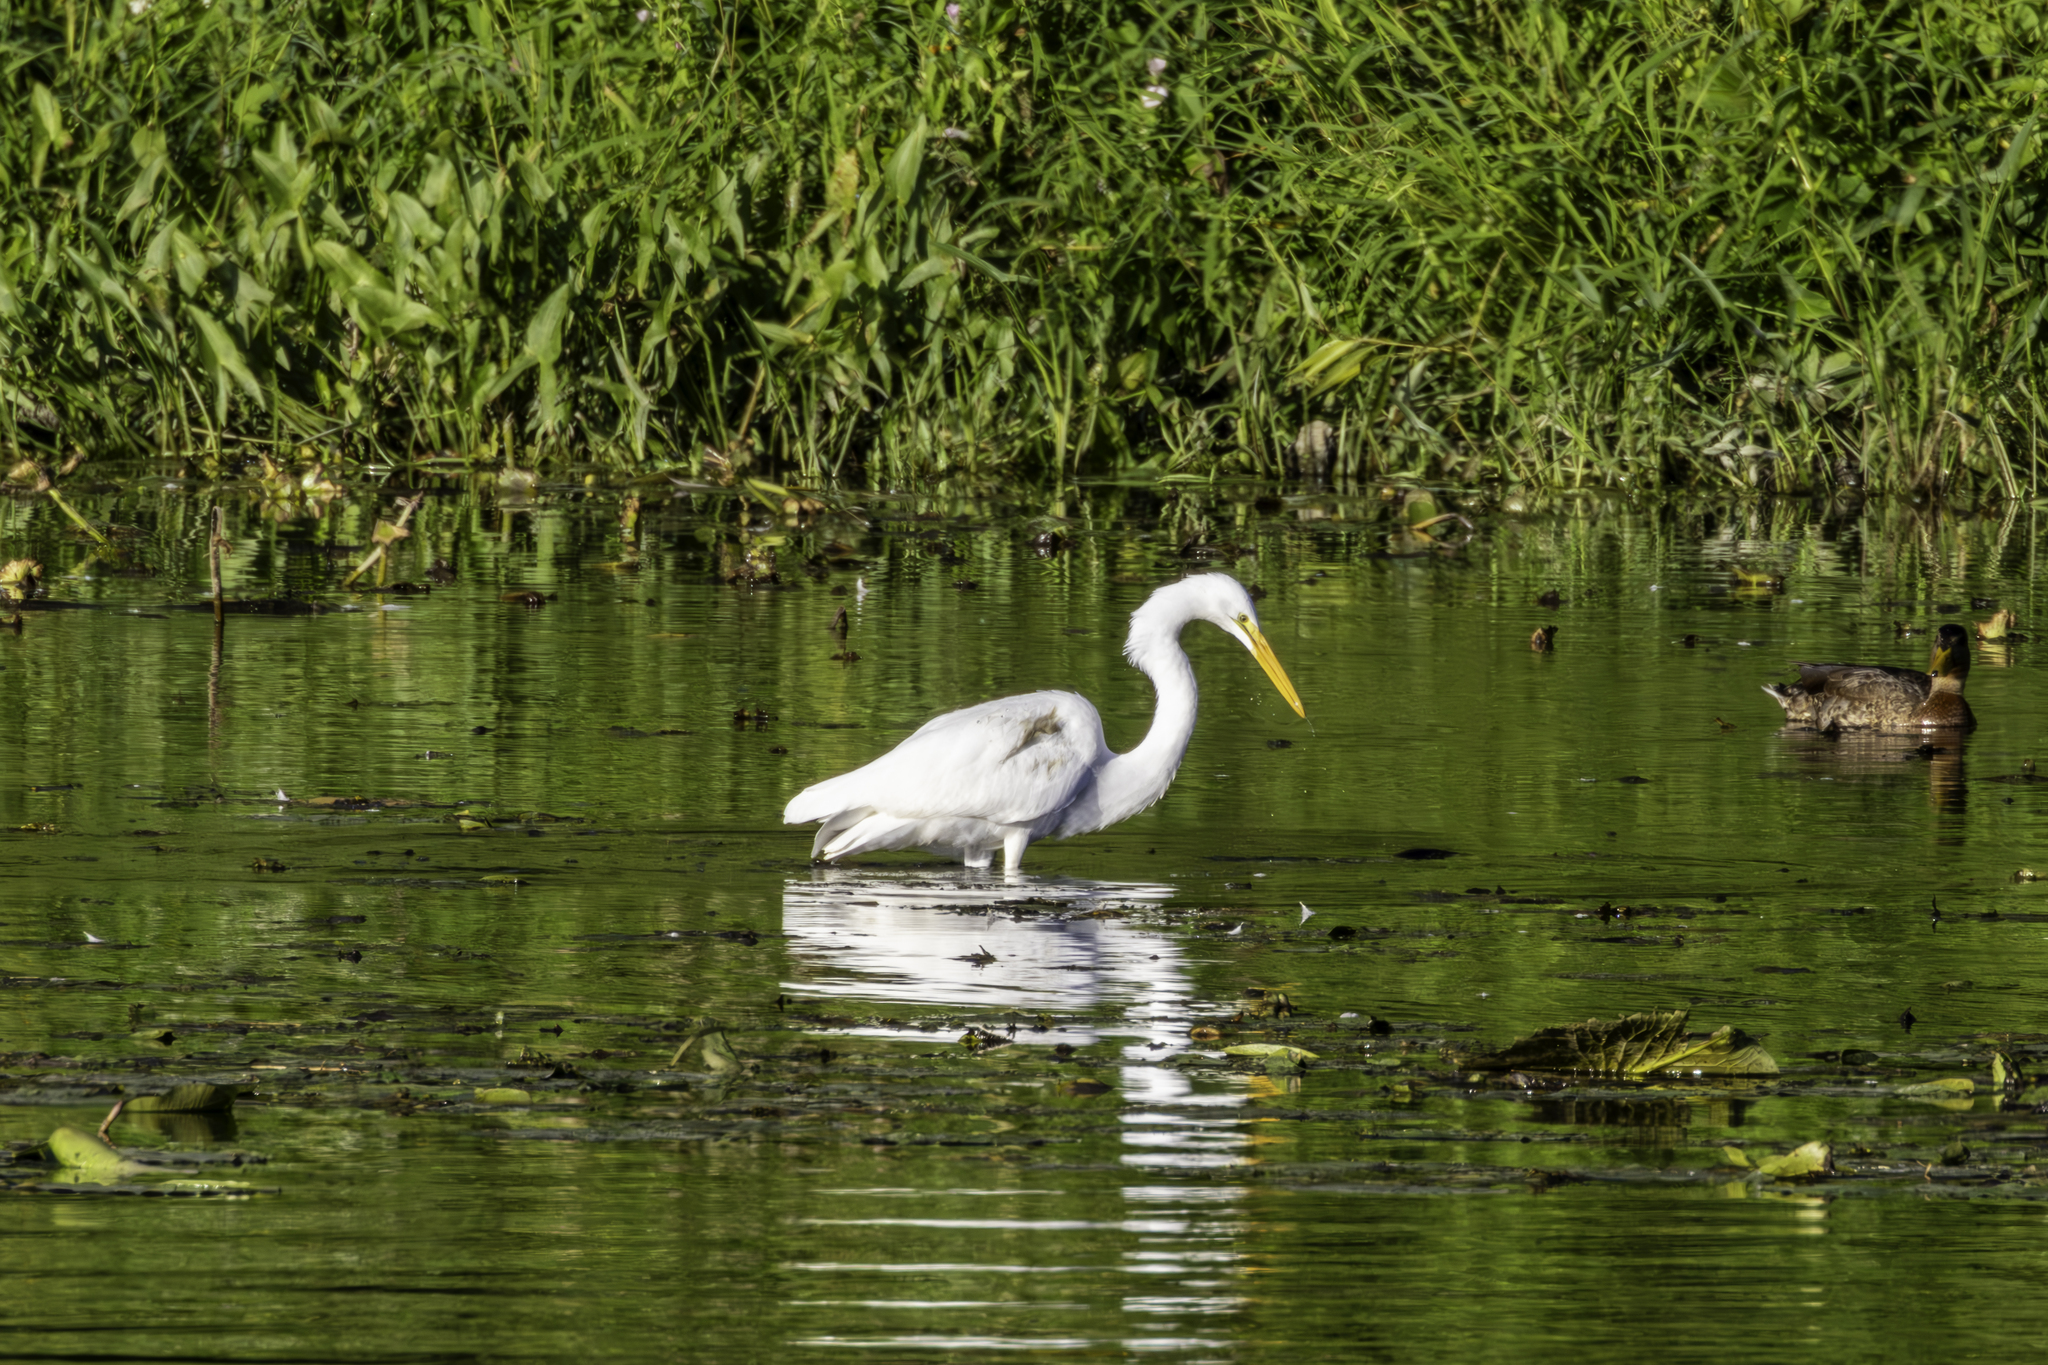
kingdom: Animalia
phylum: Chordata
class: Aves
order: Pelecaniformes
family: Ardeidae
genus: Ardea
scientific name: Ardea alba
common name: Great egret
